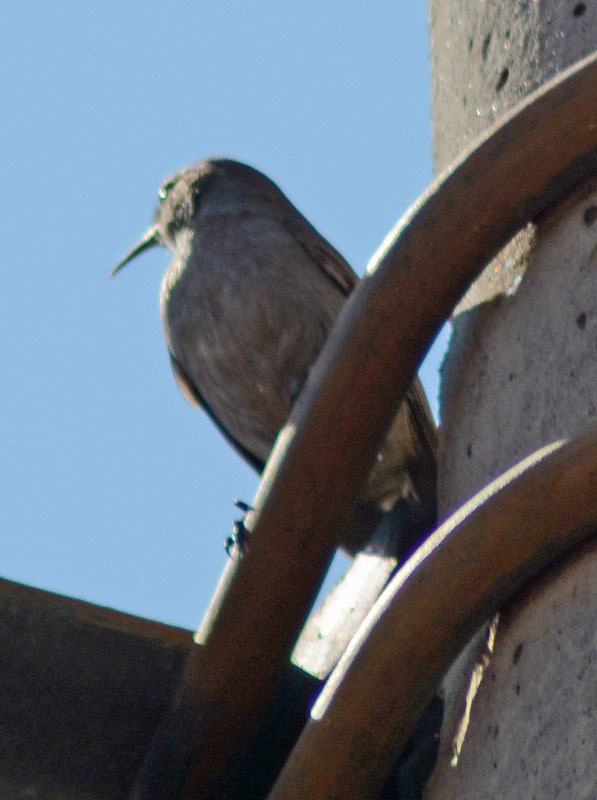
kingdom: Animalia
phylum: Chordata
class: Aves
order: Passeriformes
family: Troglodytidae
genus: Thryomanes
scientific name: Thryomanes bewickii
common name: Bewick's wren
